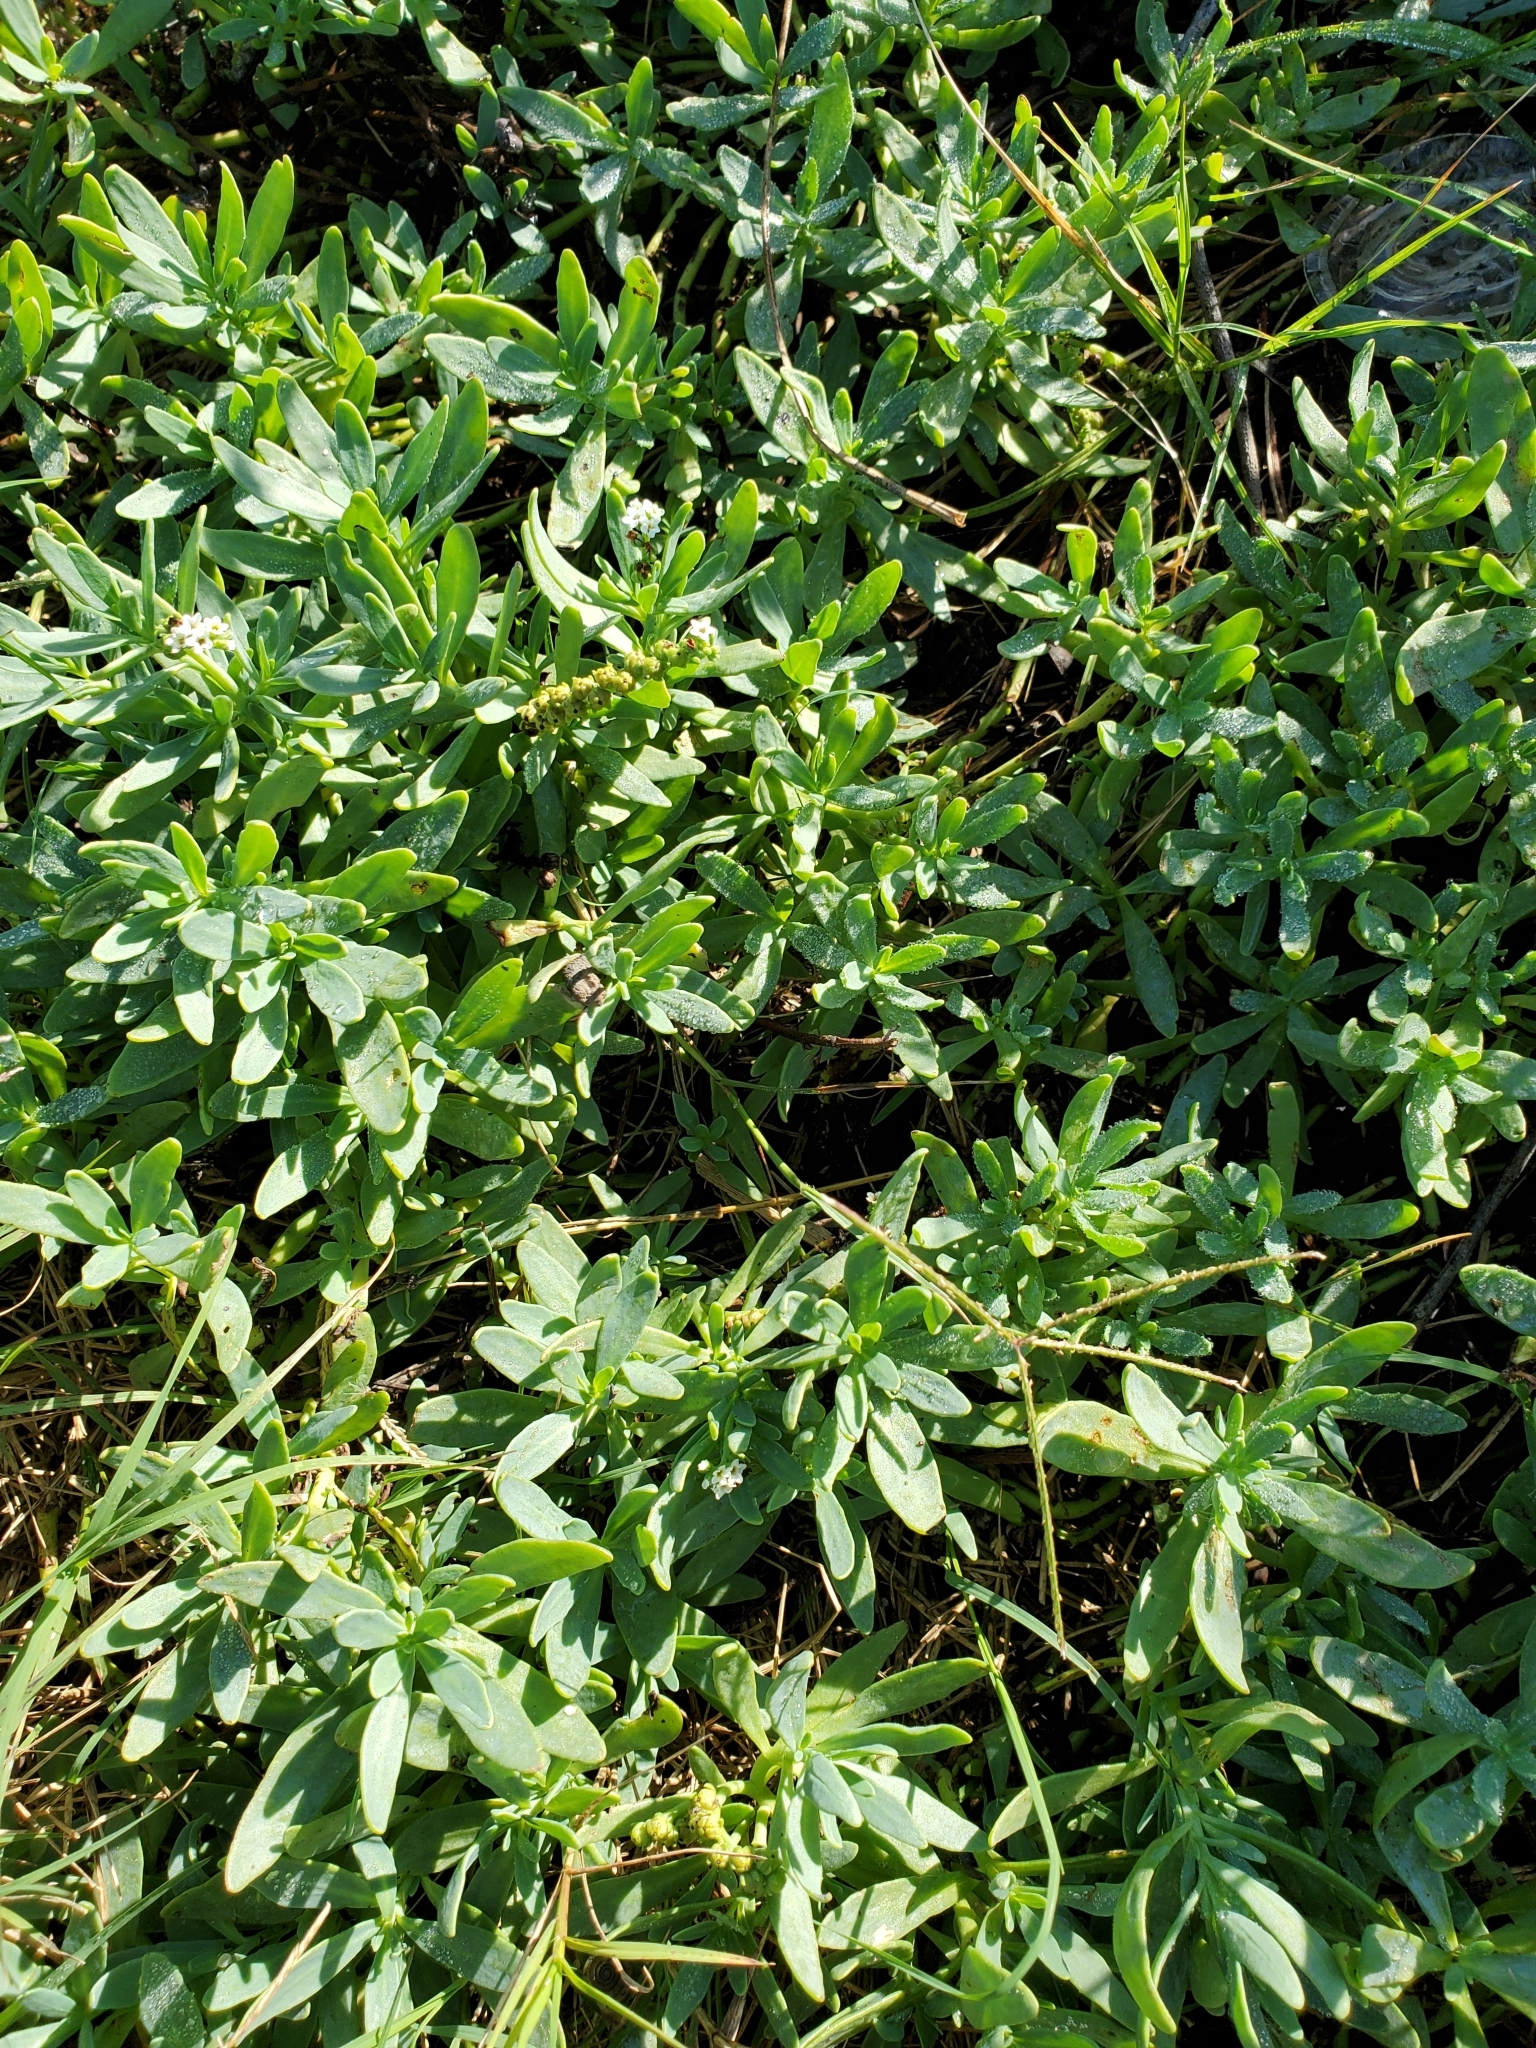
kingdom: Plantae
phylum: Tracheophyta
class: Magnoliopsida
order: Boraginales
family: Heliotropiaceae
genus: Heliotropium
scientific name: Heliotropium curassavicum
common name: Seaside heliotrope
